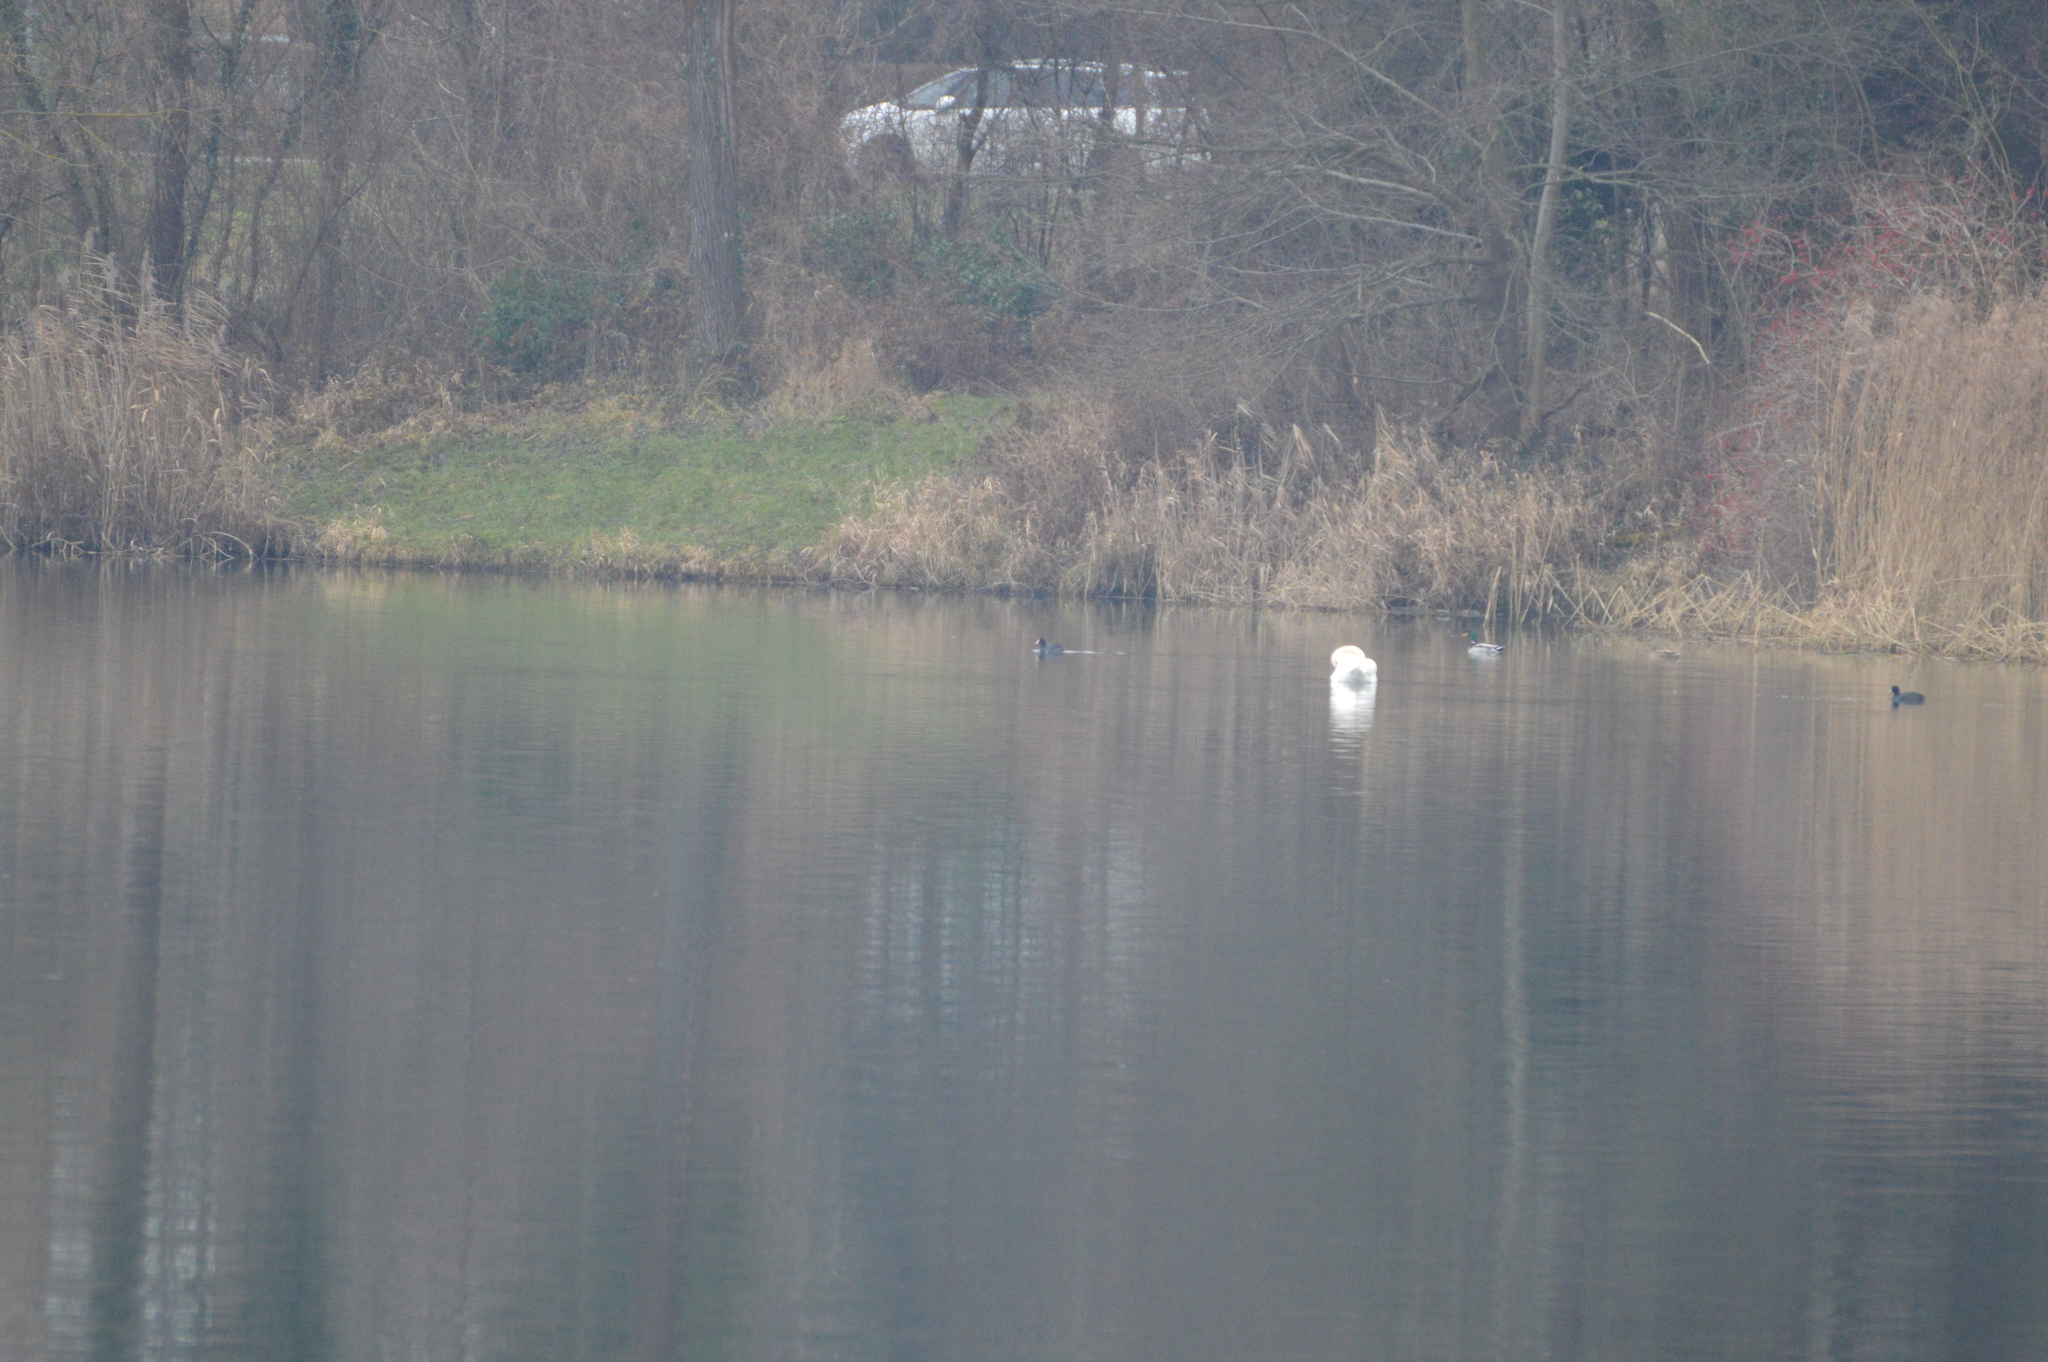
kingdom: Animalia
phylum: Chordata
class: Aves
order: Anseriformes
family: Anatidae
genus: Anas
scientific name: Anas platyrhynchos
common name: Mallard
